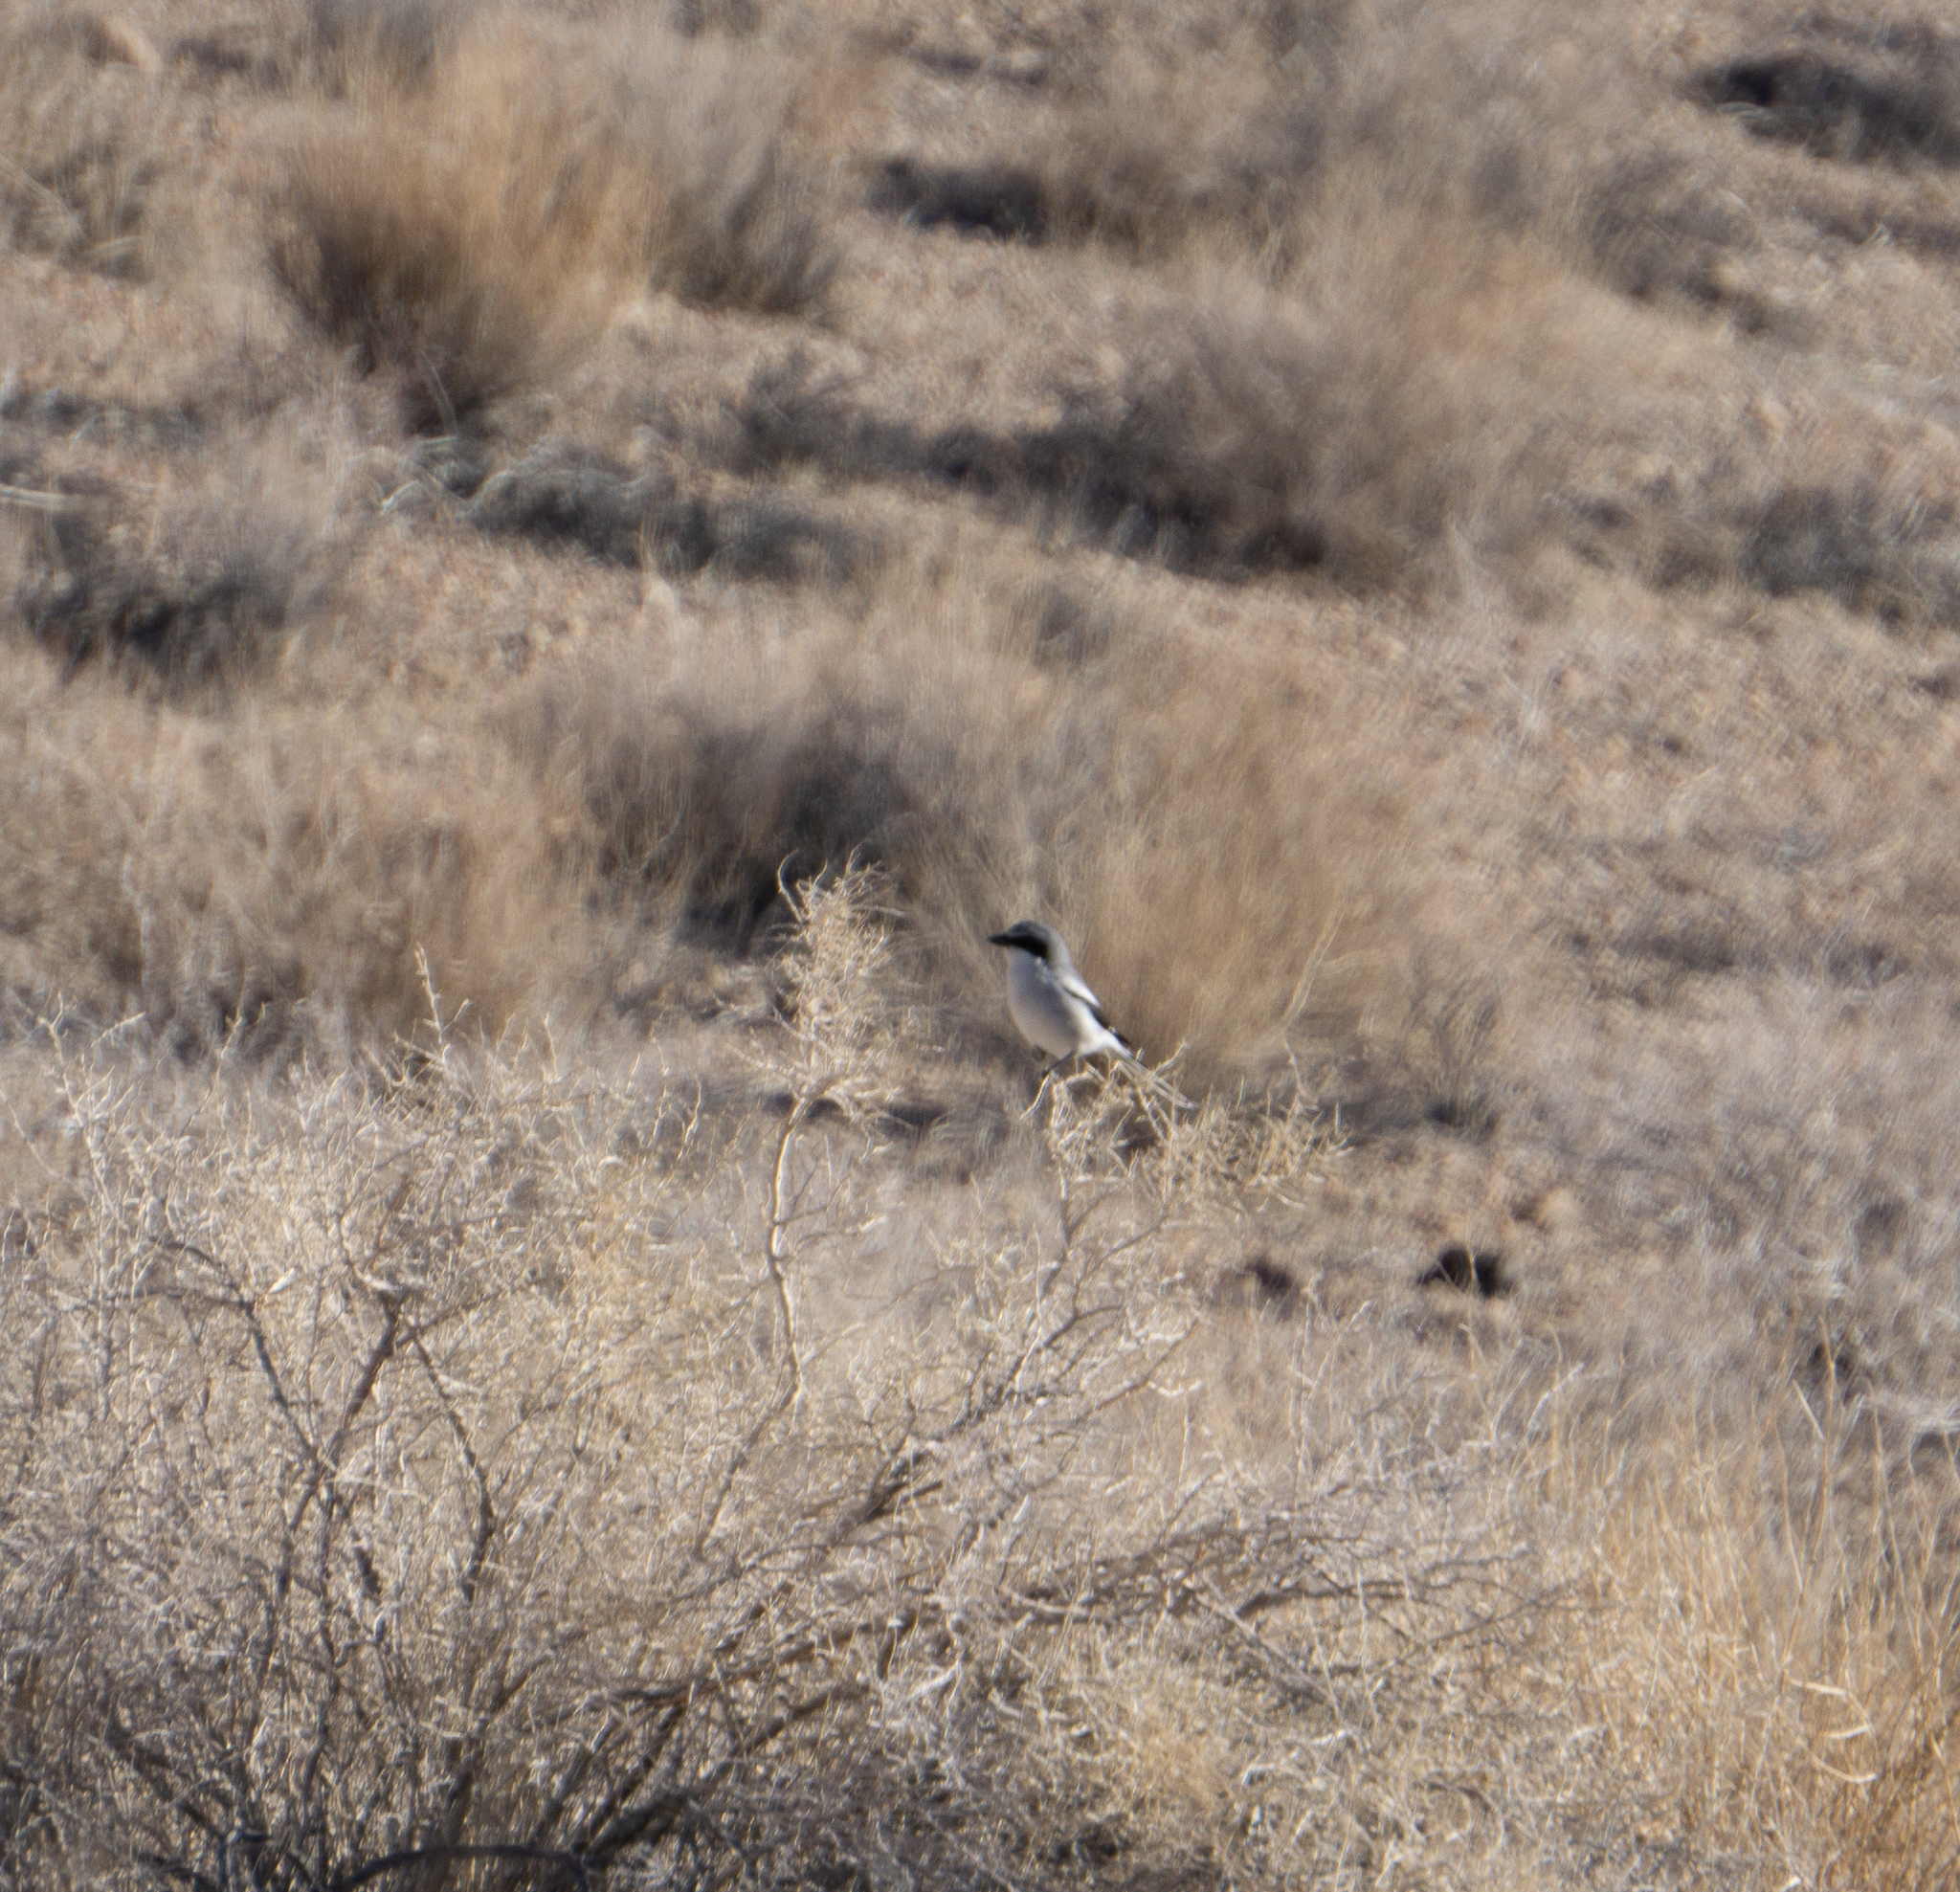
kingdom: Animalia
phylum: Chordata
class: Aves
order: Passeriformes
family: Laniidae
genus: Lanius
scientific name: Lanius ludovicianus
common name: Loggerhead shrike
